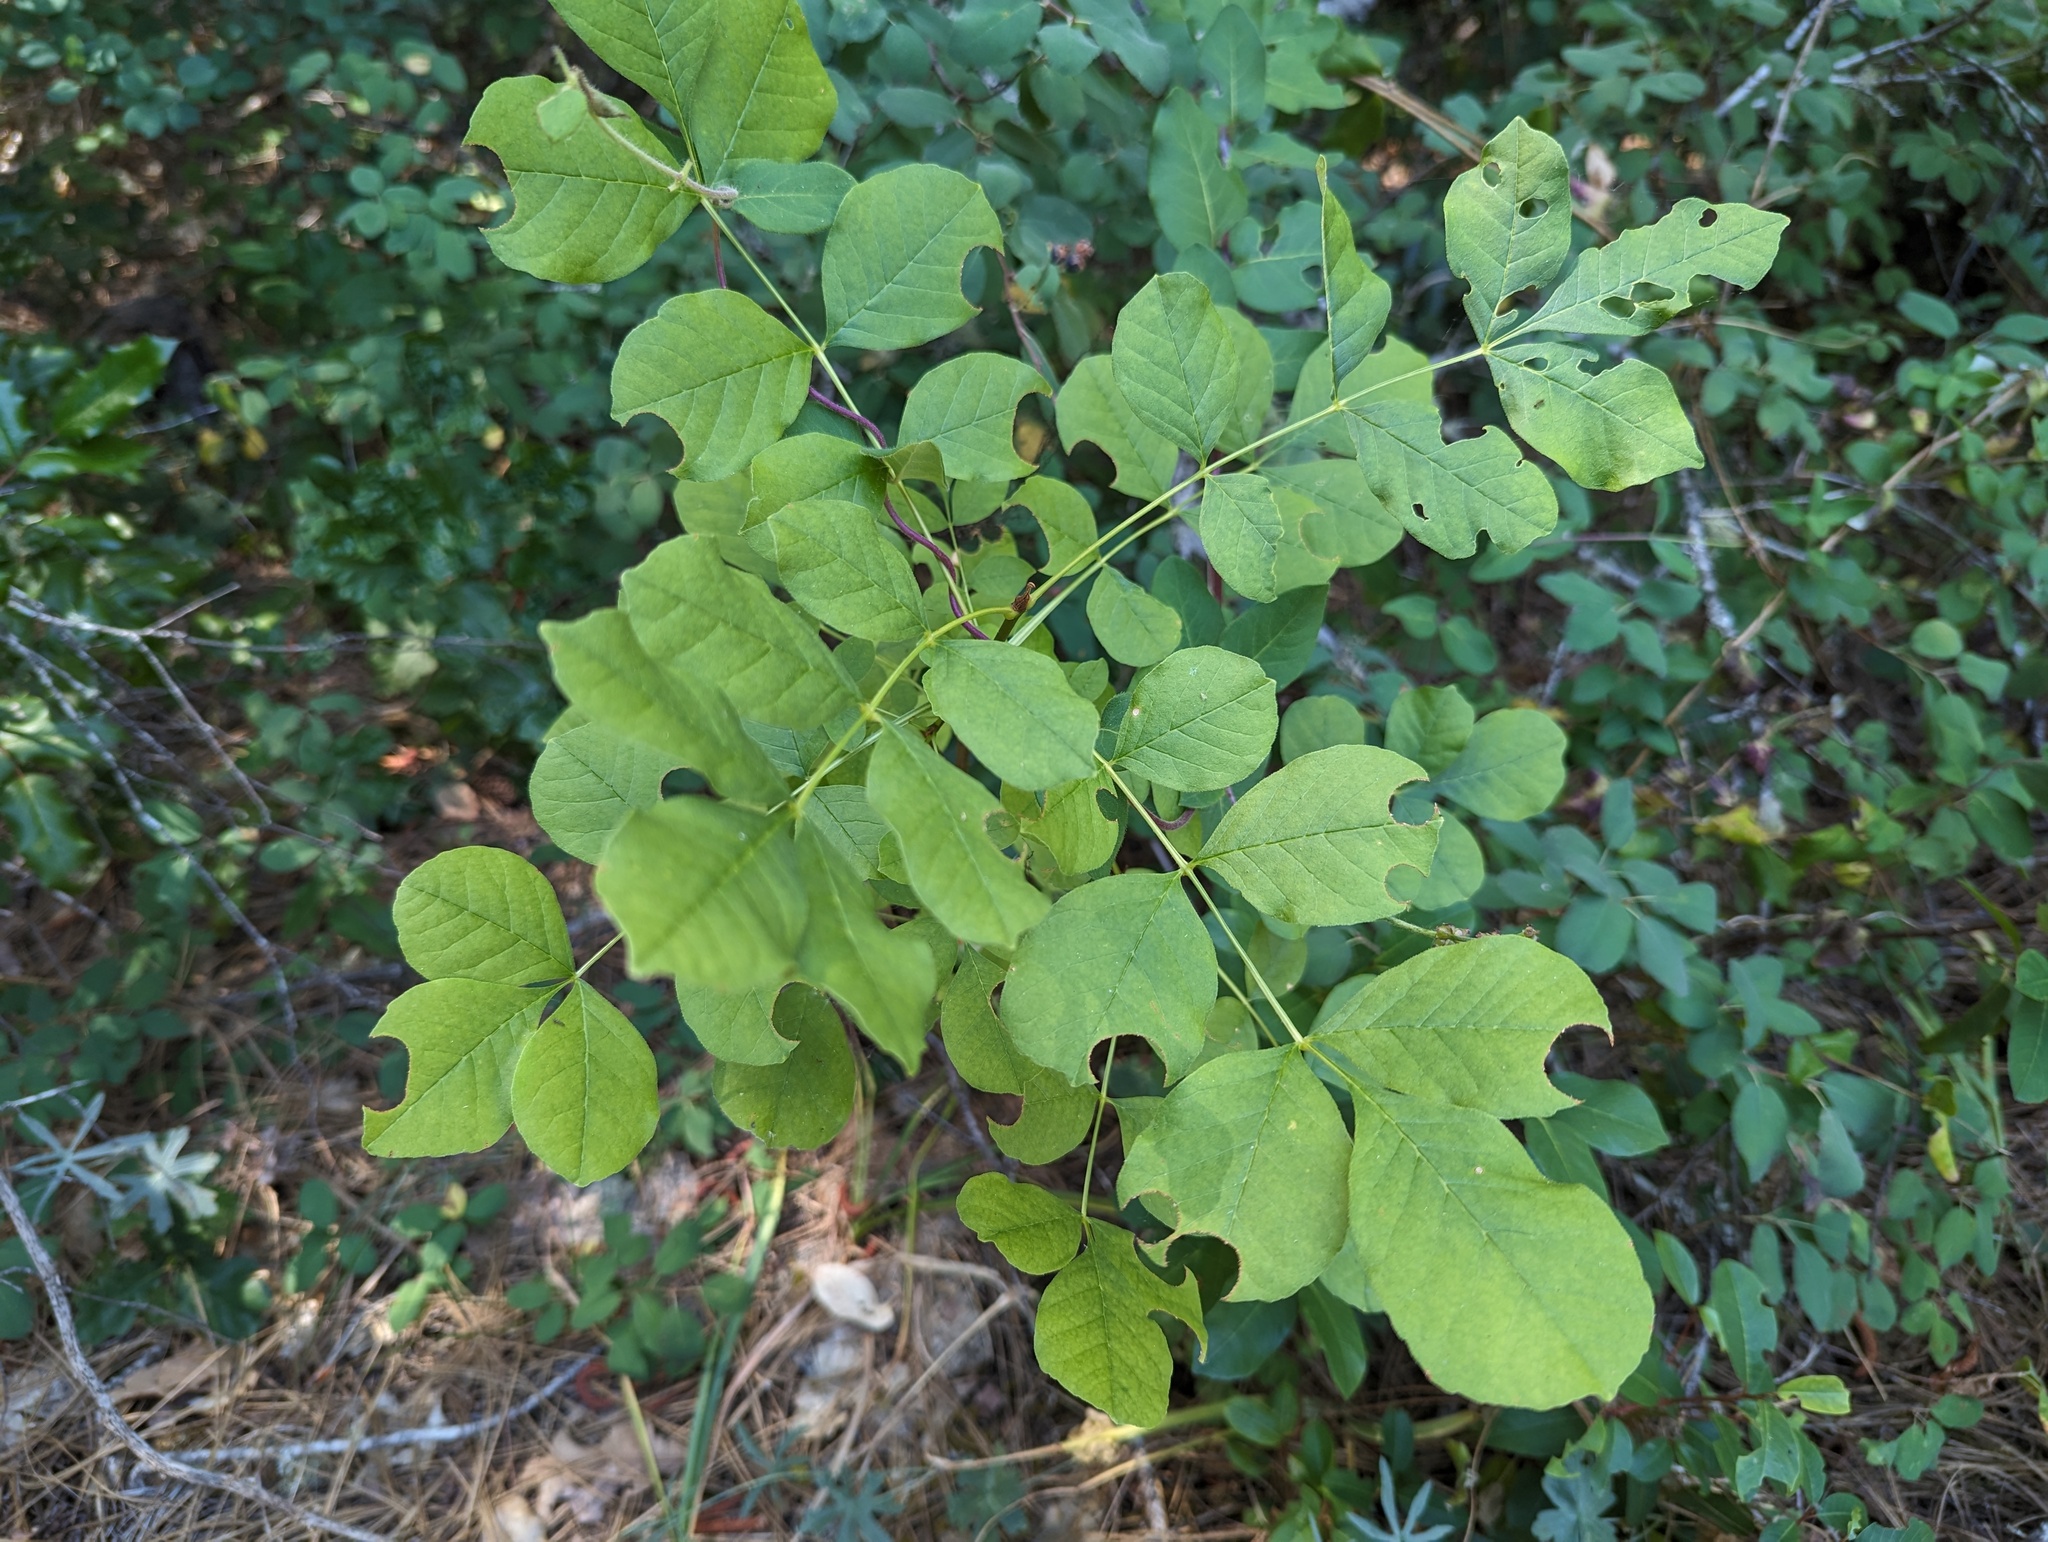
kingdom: Plantae
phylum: Tracheophyta
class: Magnoliopsida
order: Lamiales
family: Oleaceae
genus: Fraxinus
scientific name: Fraxinus latifolia
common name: Oregon ash
